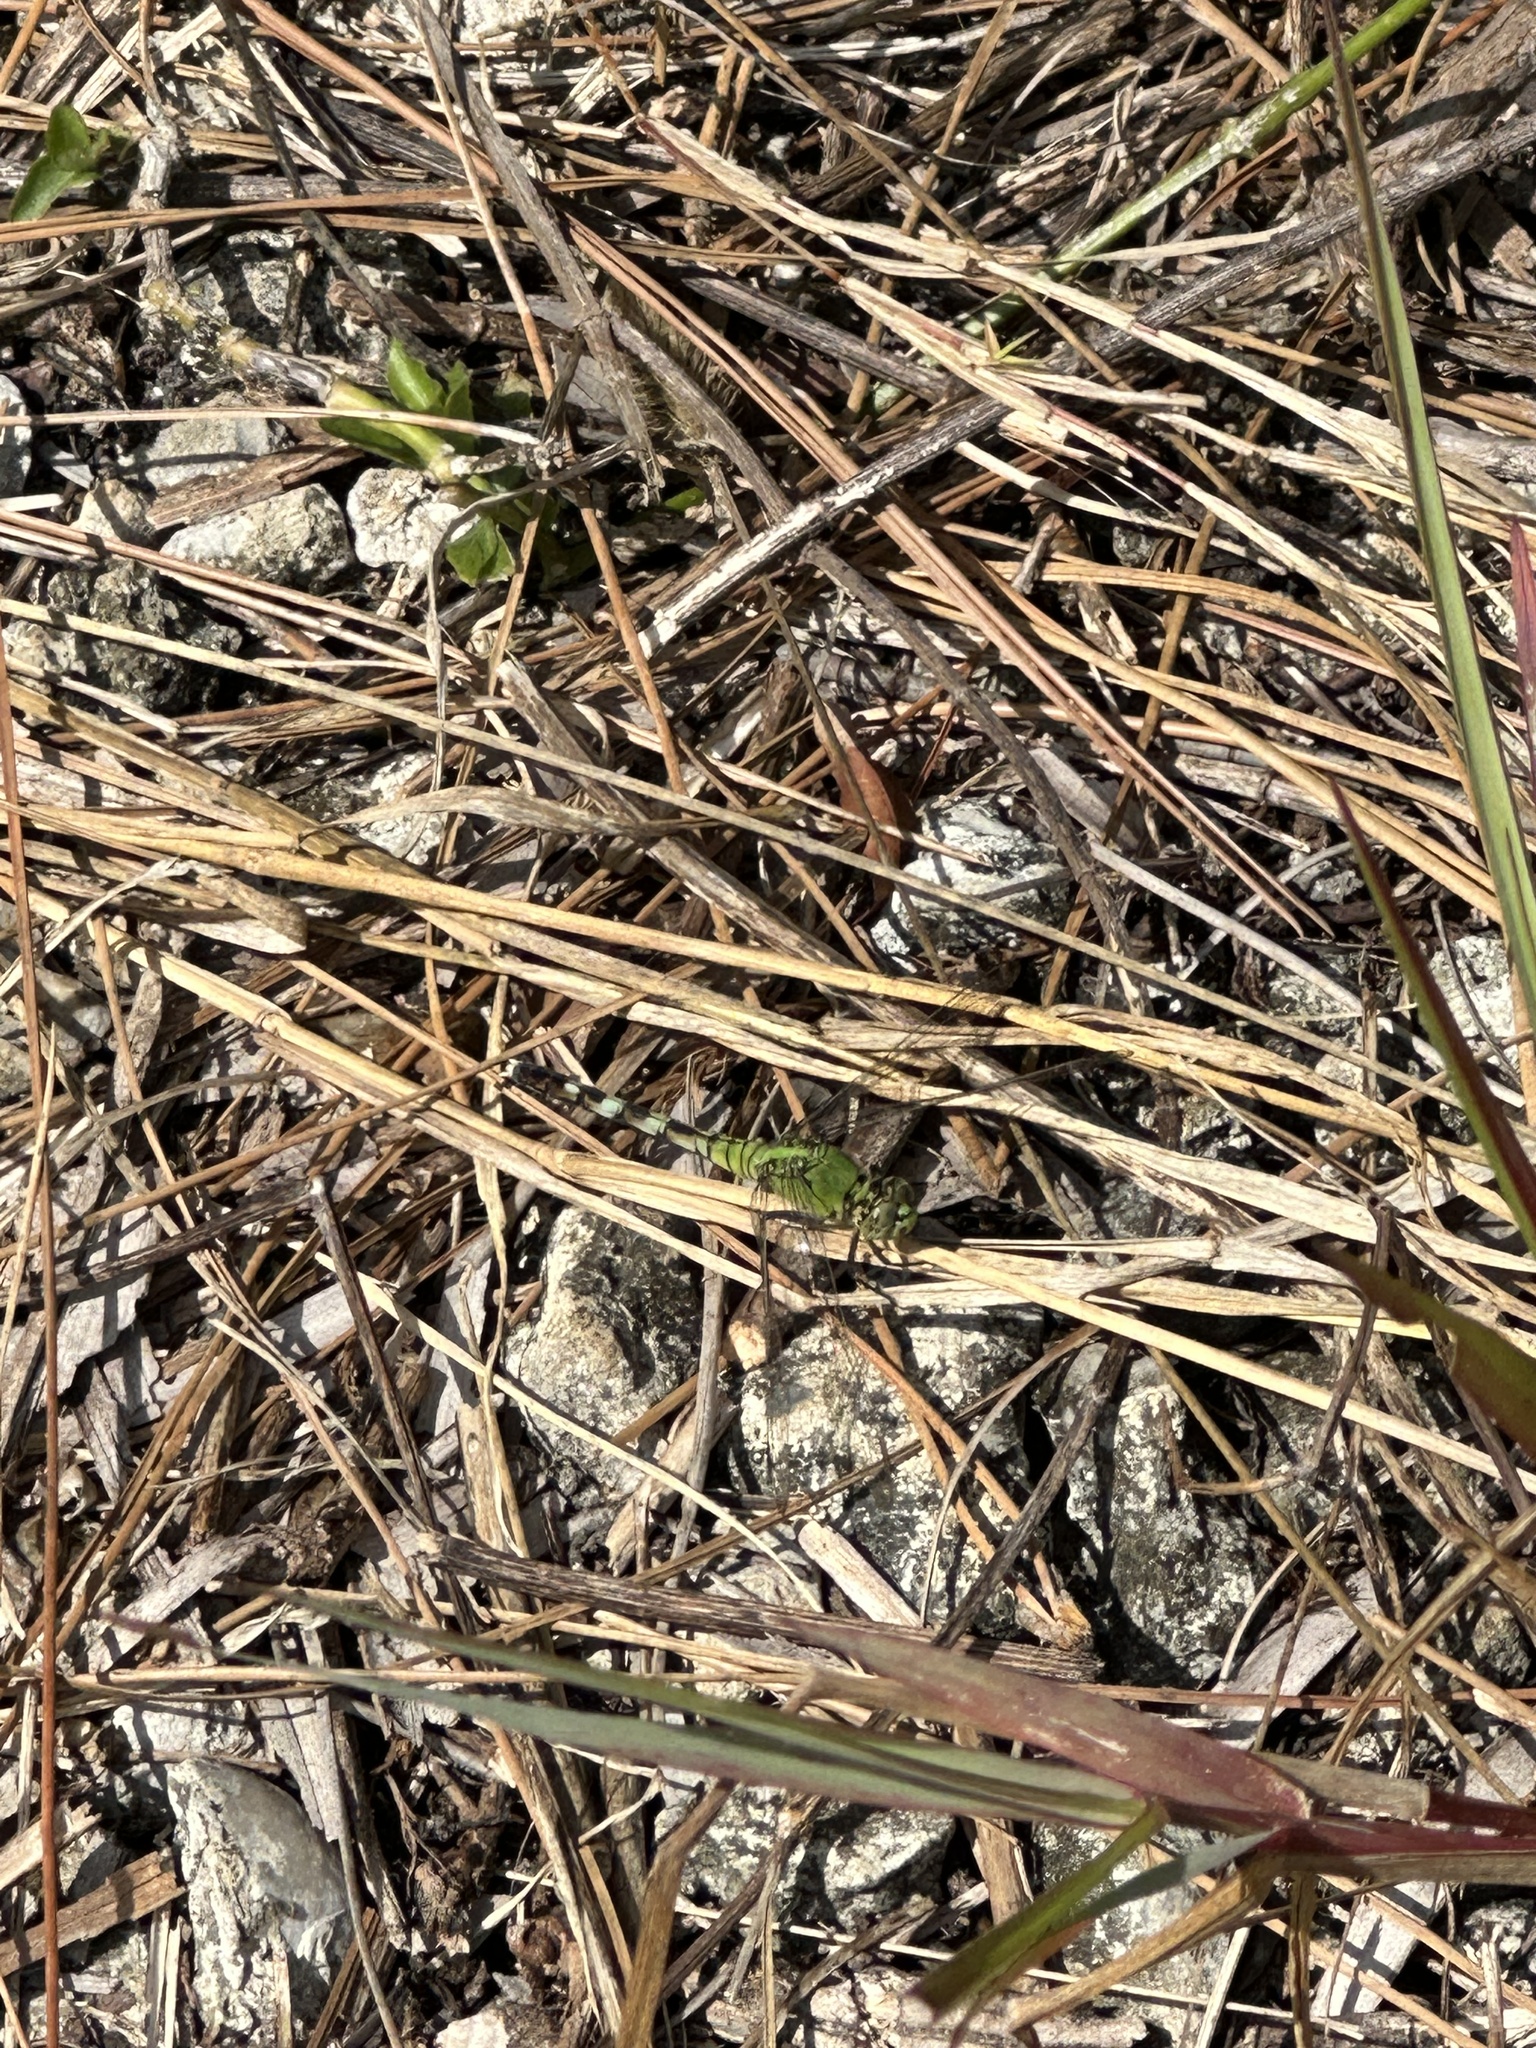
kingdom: Animalia
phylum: Arthropoda
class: Insecta
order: Odonata
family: Libellulidae
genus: Erythemis
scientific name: Erythemis simplicicollis
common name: Eastern pondhawk
